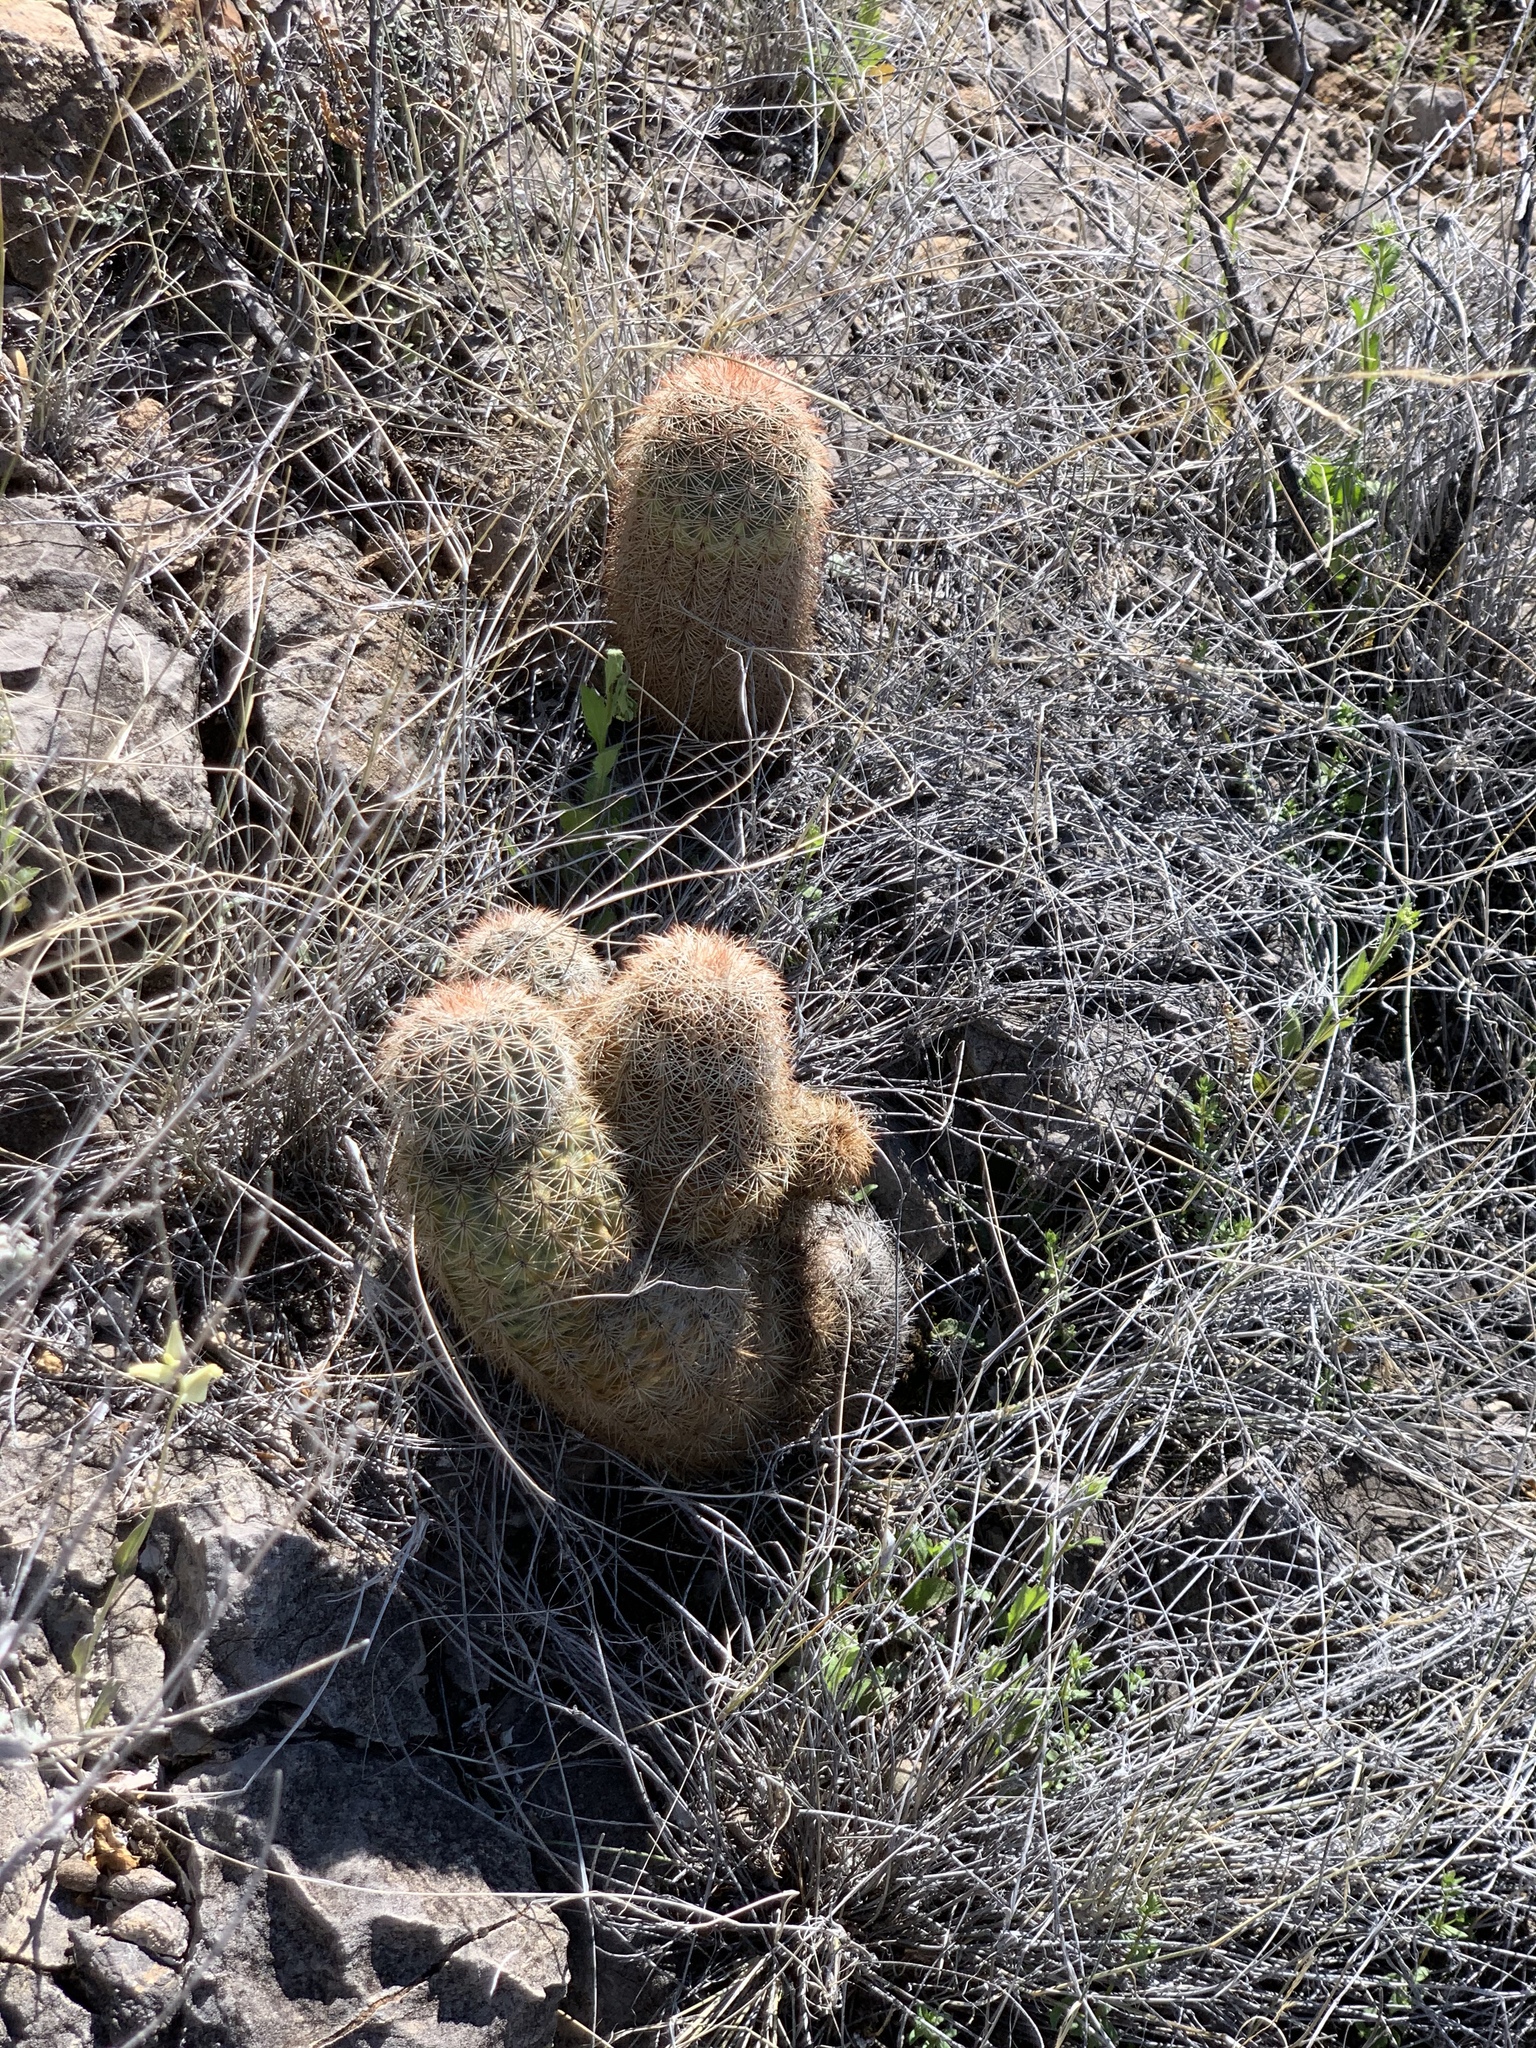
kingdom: Plantae
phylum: Tracheophyta
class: Magnoliopsida
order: Caryophyllales
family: Cactaceae
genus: Echinocereus
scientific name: Echinocereus dasyacanthus
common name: Spiny hedgehog cactus
